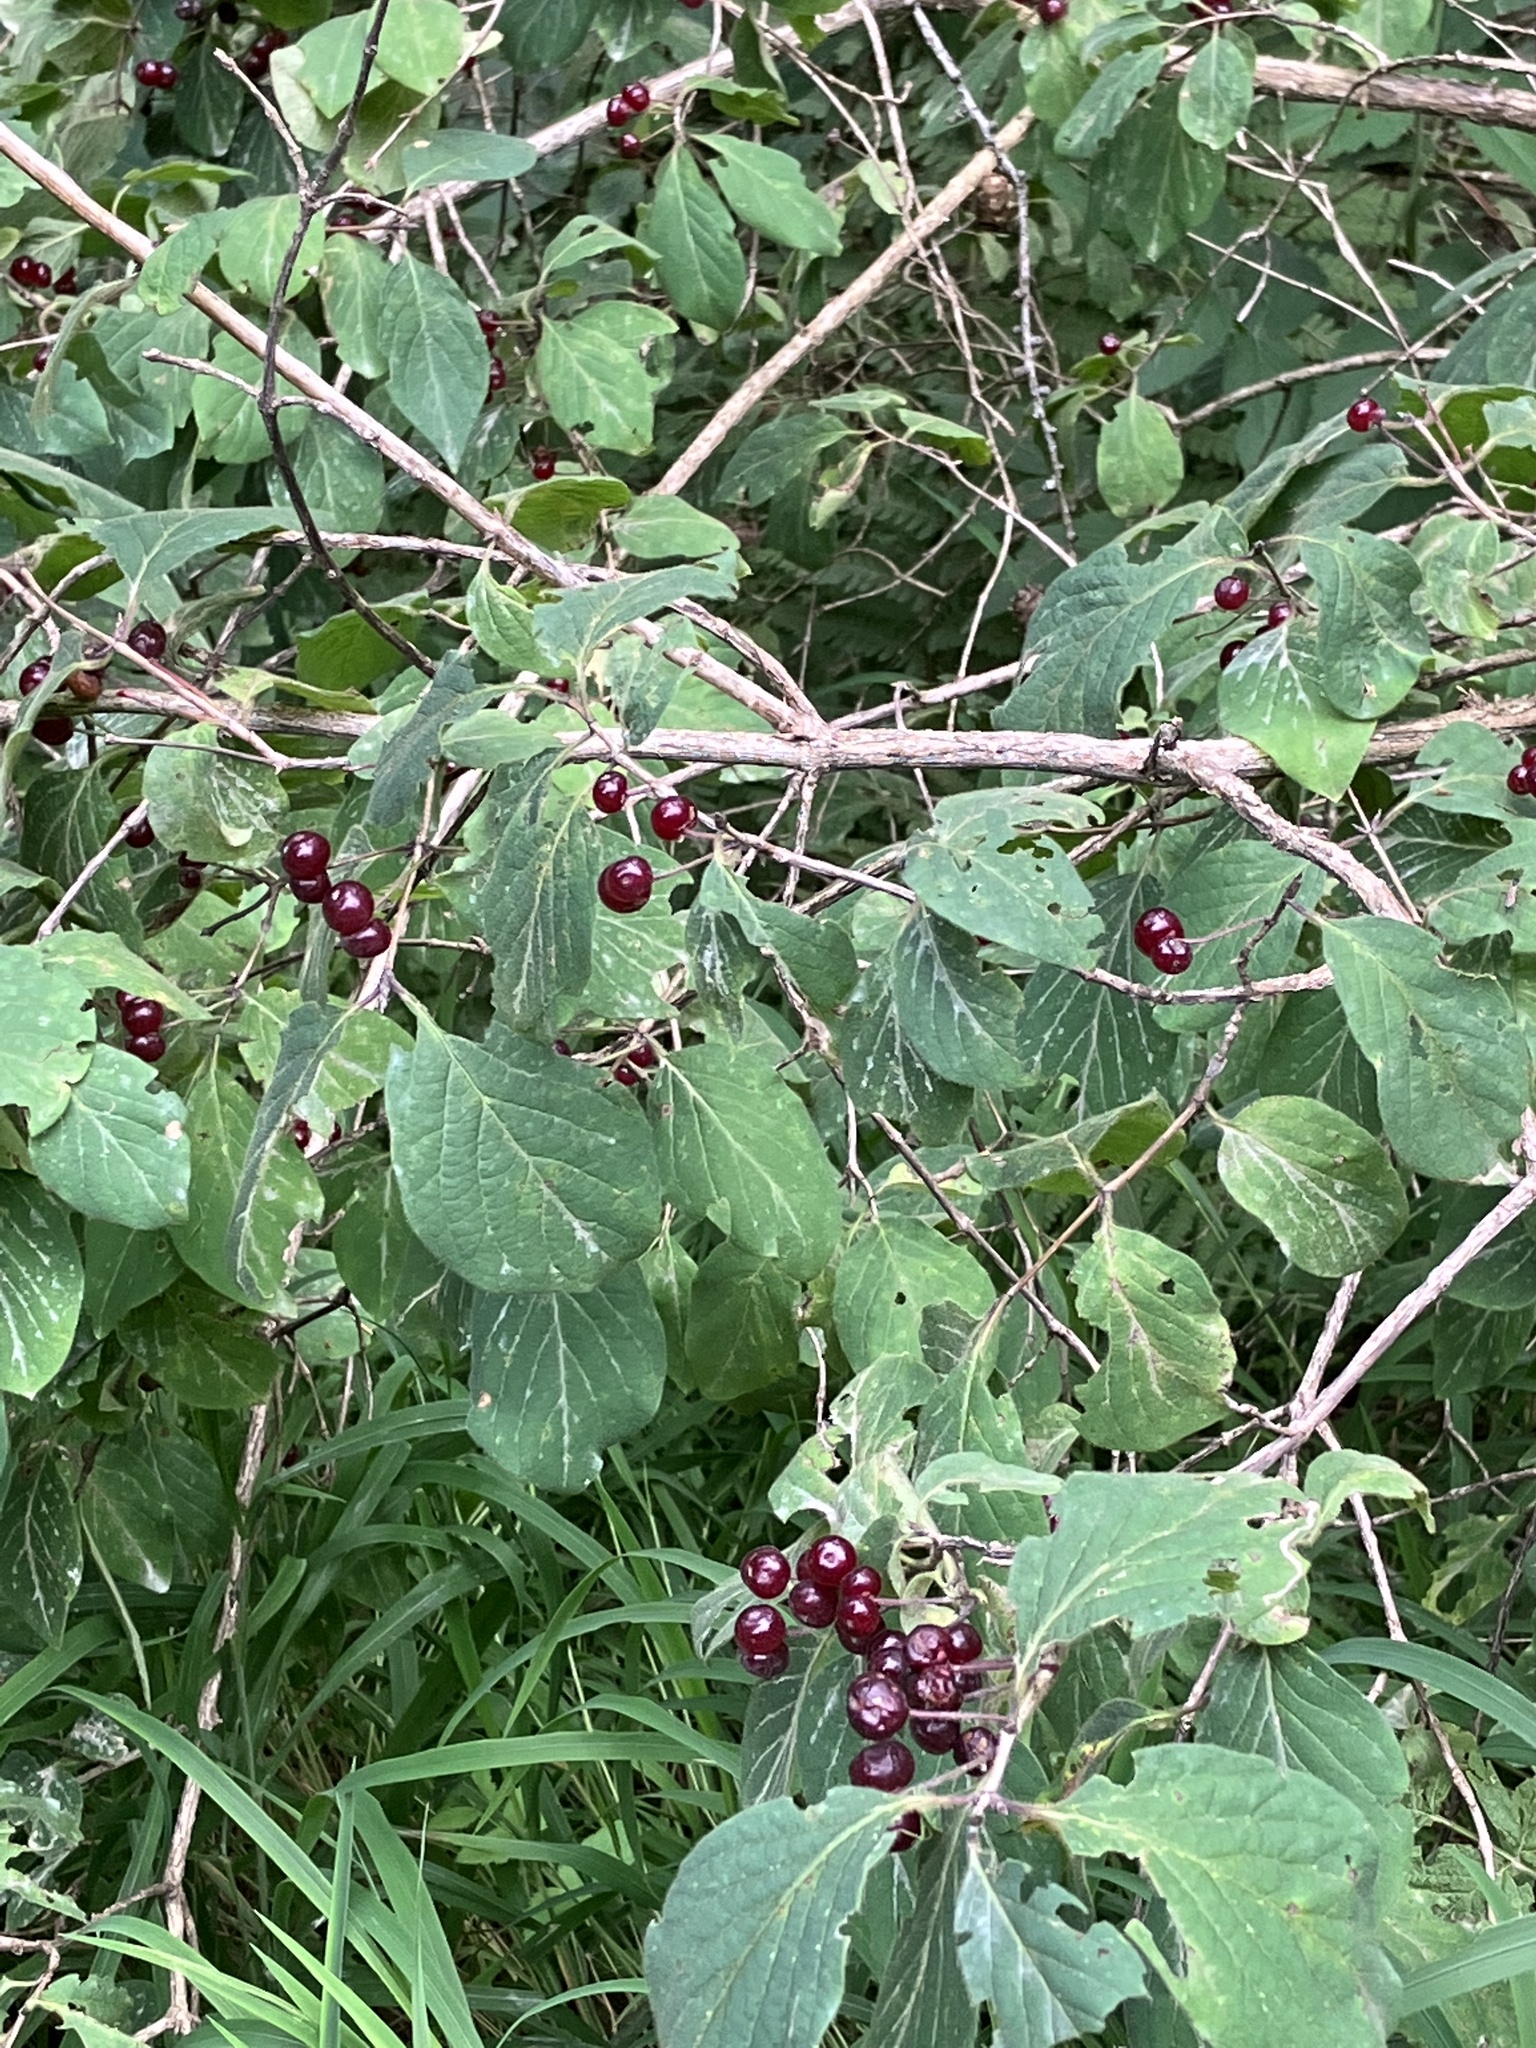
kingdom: Plantae
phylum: Tracheophyta
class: Magnoliopsida
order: Dipsacales
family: Caprifoliaceae
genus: Lonicera
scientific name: Lonicera xylosteum
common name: Fly honeysuckle
